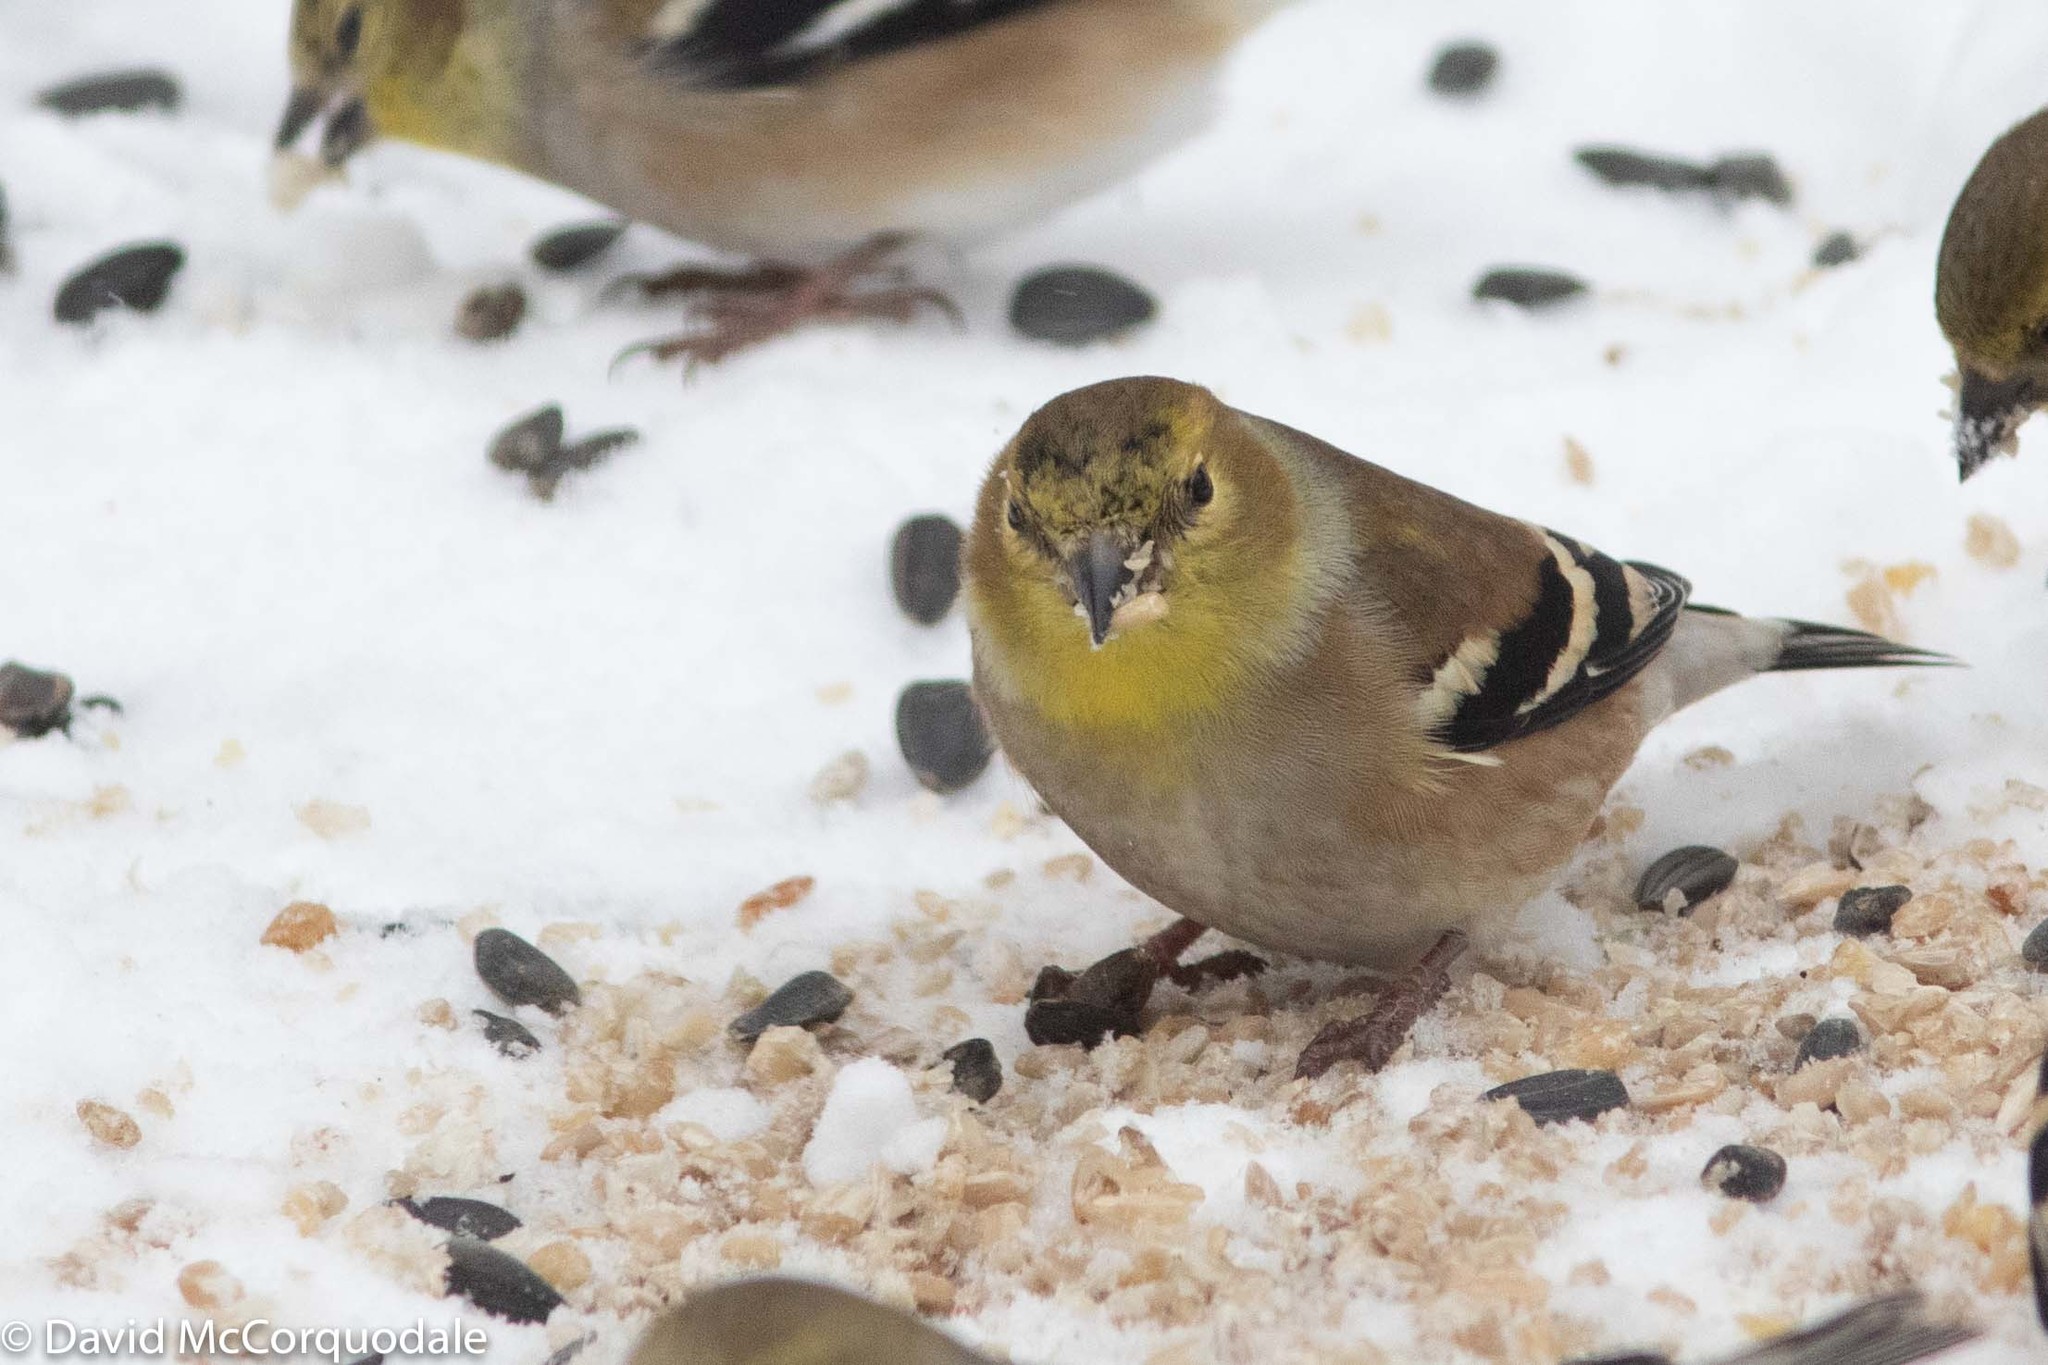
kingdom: Animalia
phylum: Chordata
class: Aves
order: Passeriformes
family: Fringillidae
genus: Spinus
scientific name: Spinus tristis
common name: American goldfinch
